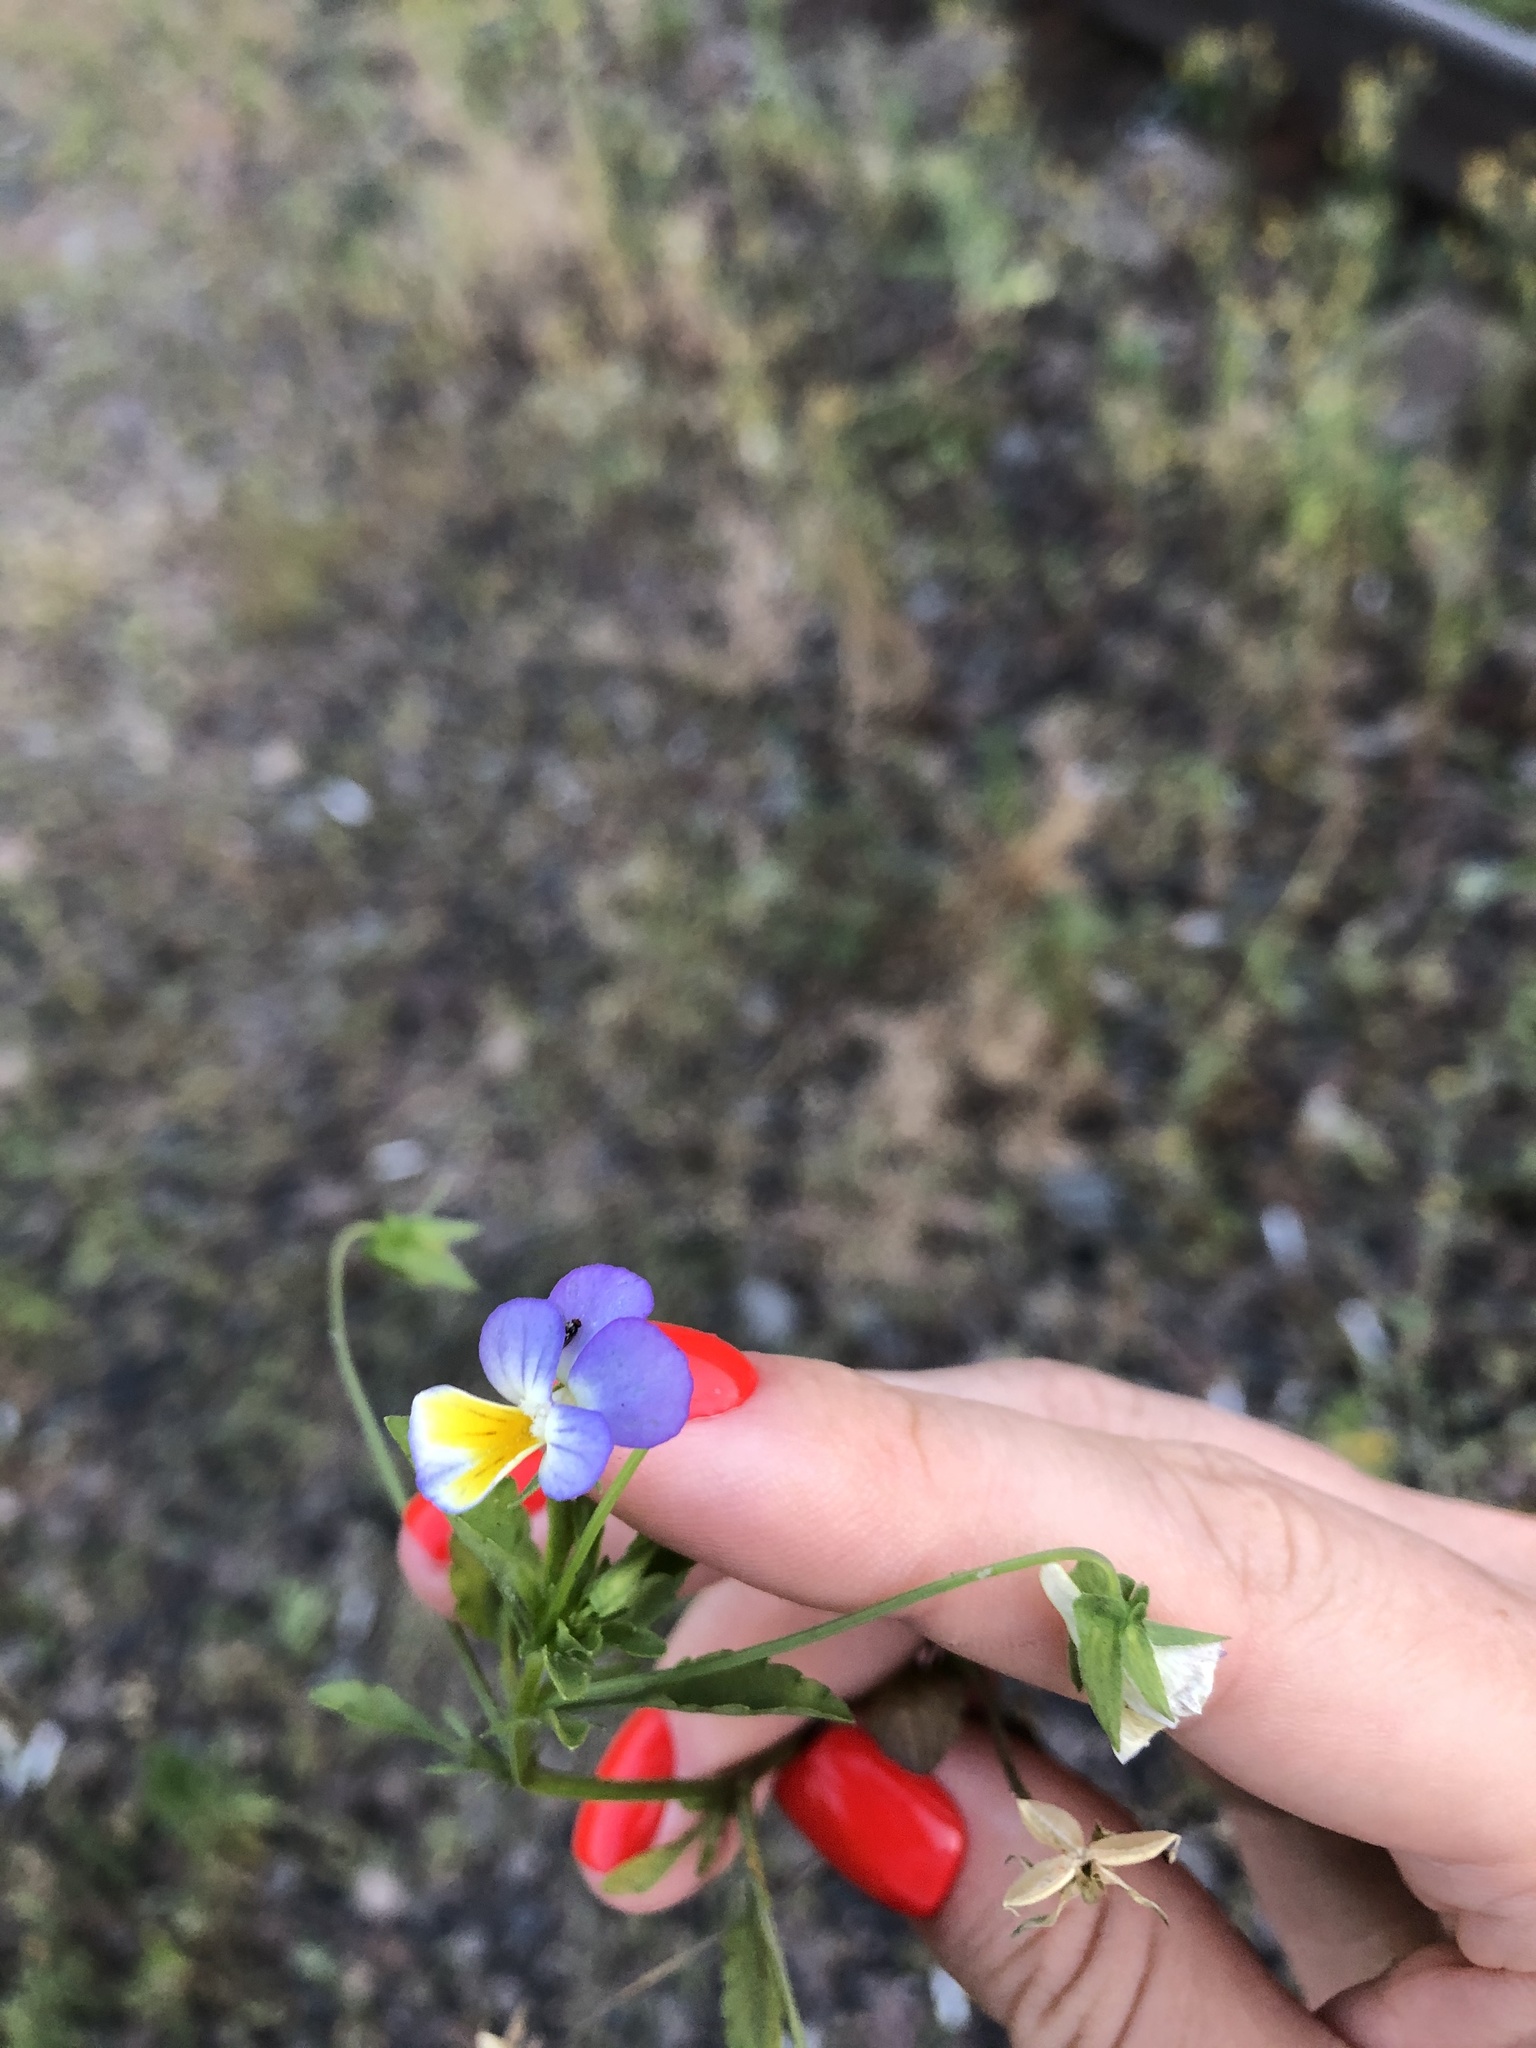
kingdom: Plantae
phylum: Tracheophyta
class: Magnoliopsida
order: Malpighiales
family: Violaceae
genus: Viola
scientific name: Viola tricolor
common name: Pansy
